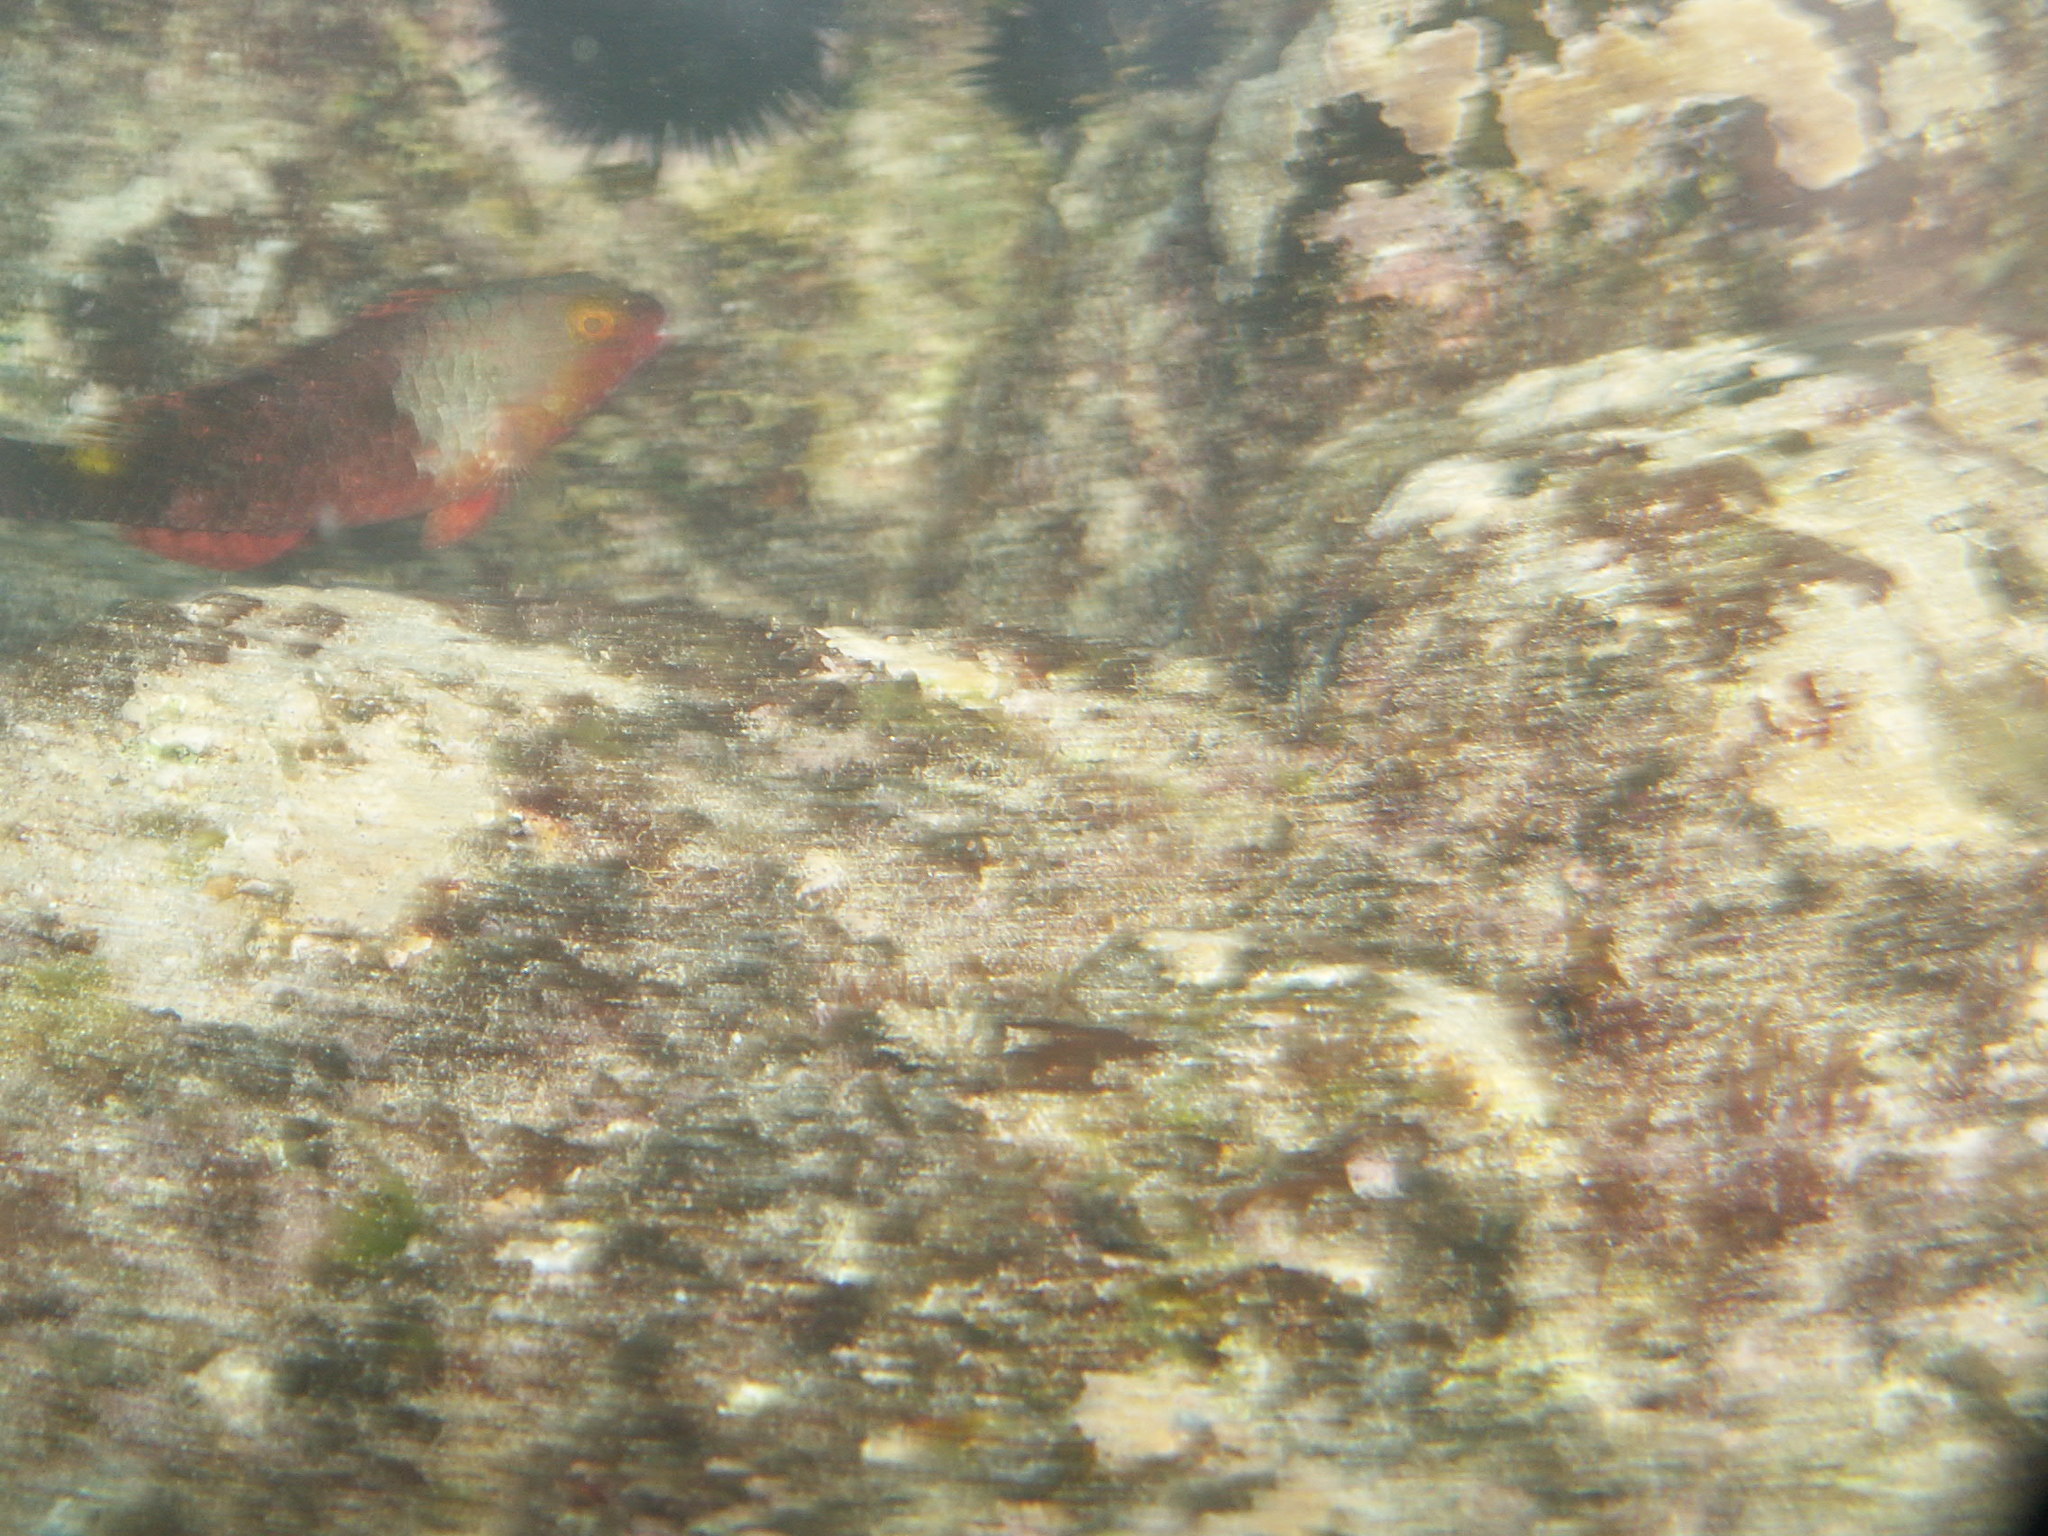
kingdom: Animalia
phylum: Chordata
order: Perciformes
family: Scaridae
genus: Sparisoma
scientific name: Sparisoma cretense
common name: Parrotfish
